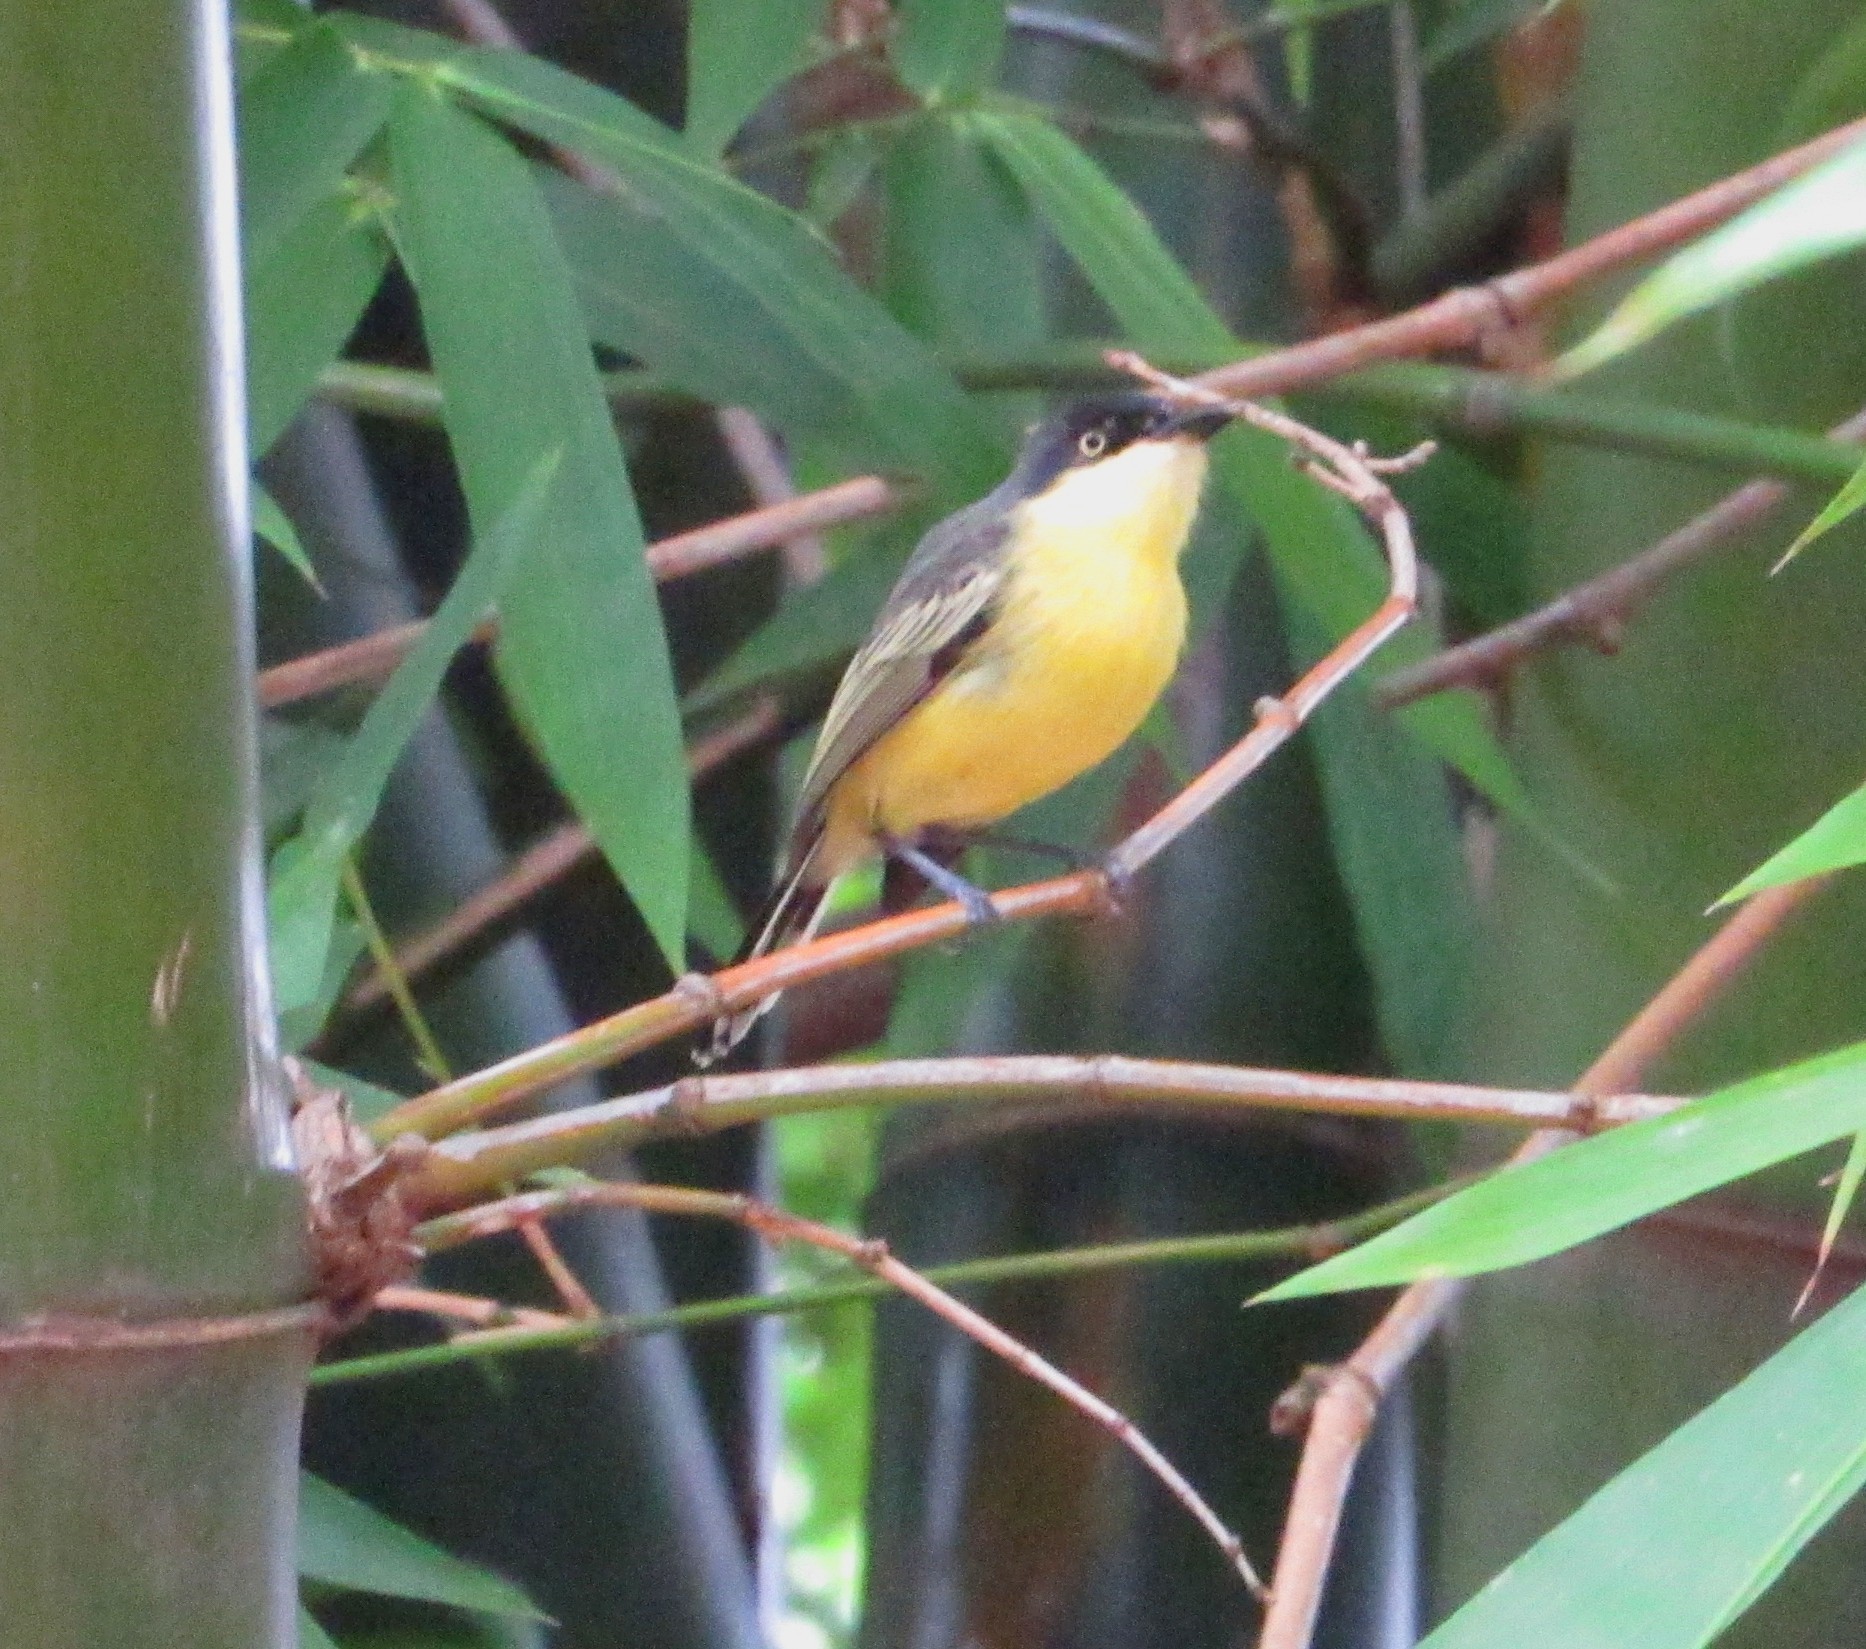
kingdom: Animalia
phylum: Chordata
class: Aves
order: Passeriformes
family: Tyrannidae
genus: Todirostrum
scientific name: Todirostrum cinereum
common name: Common tody-flycatcher
